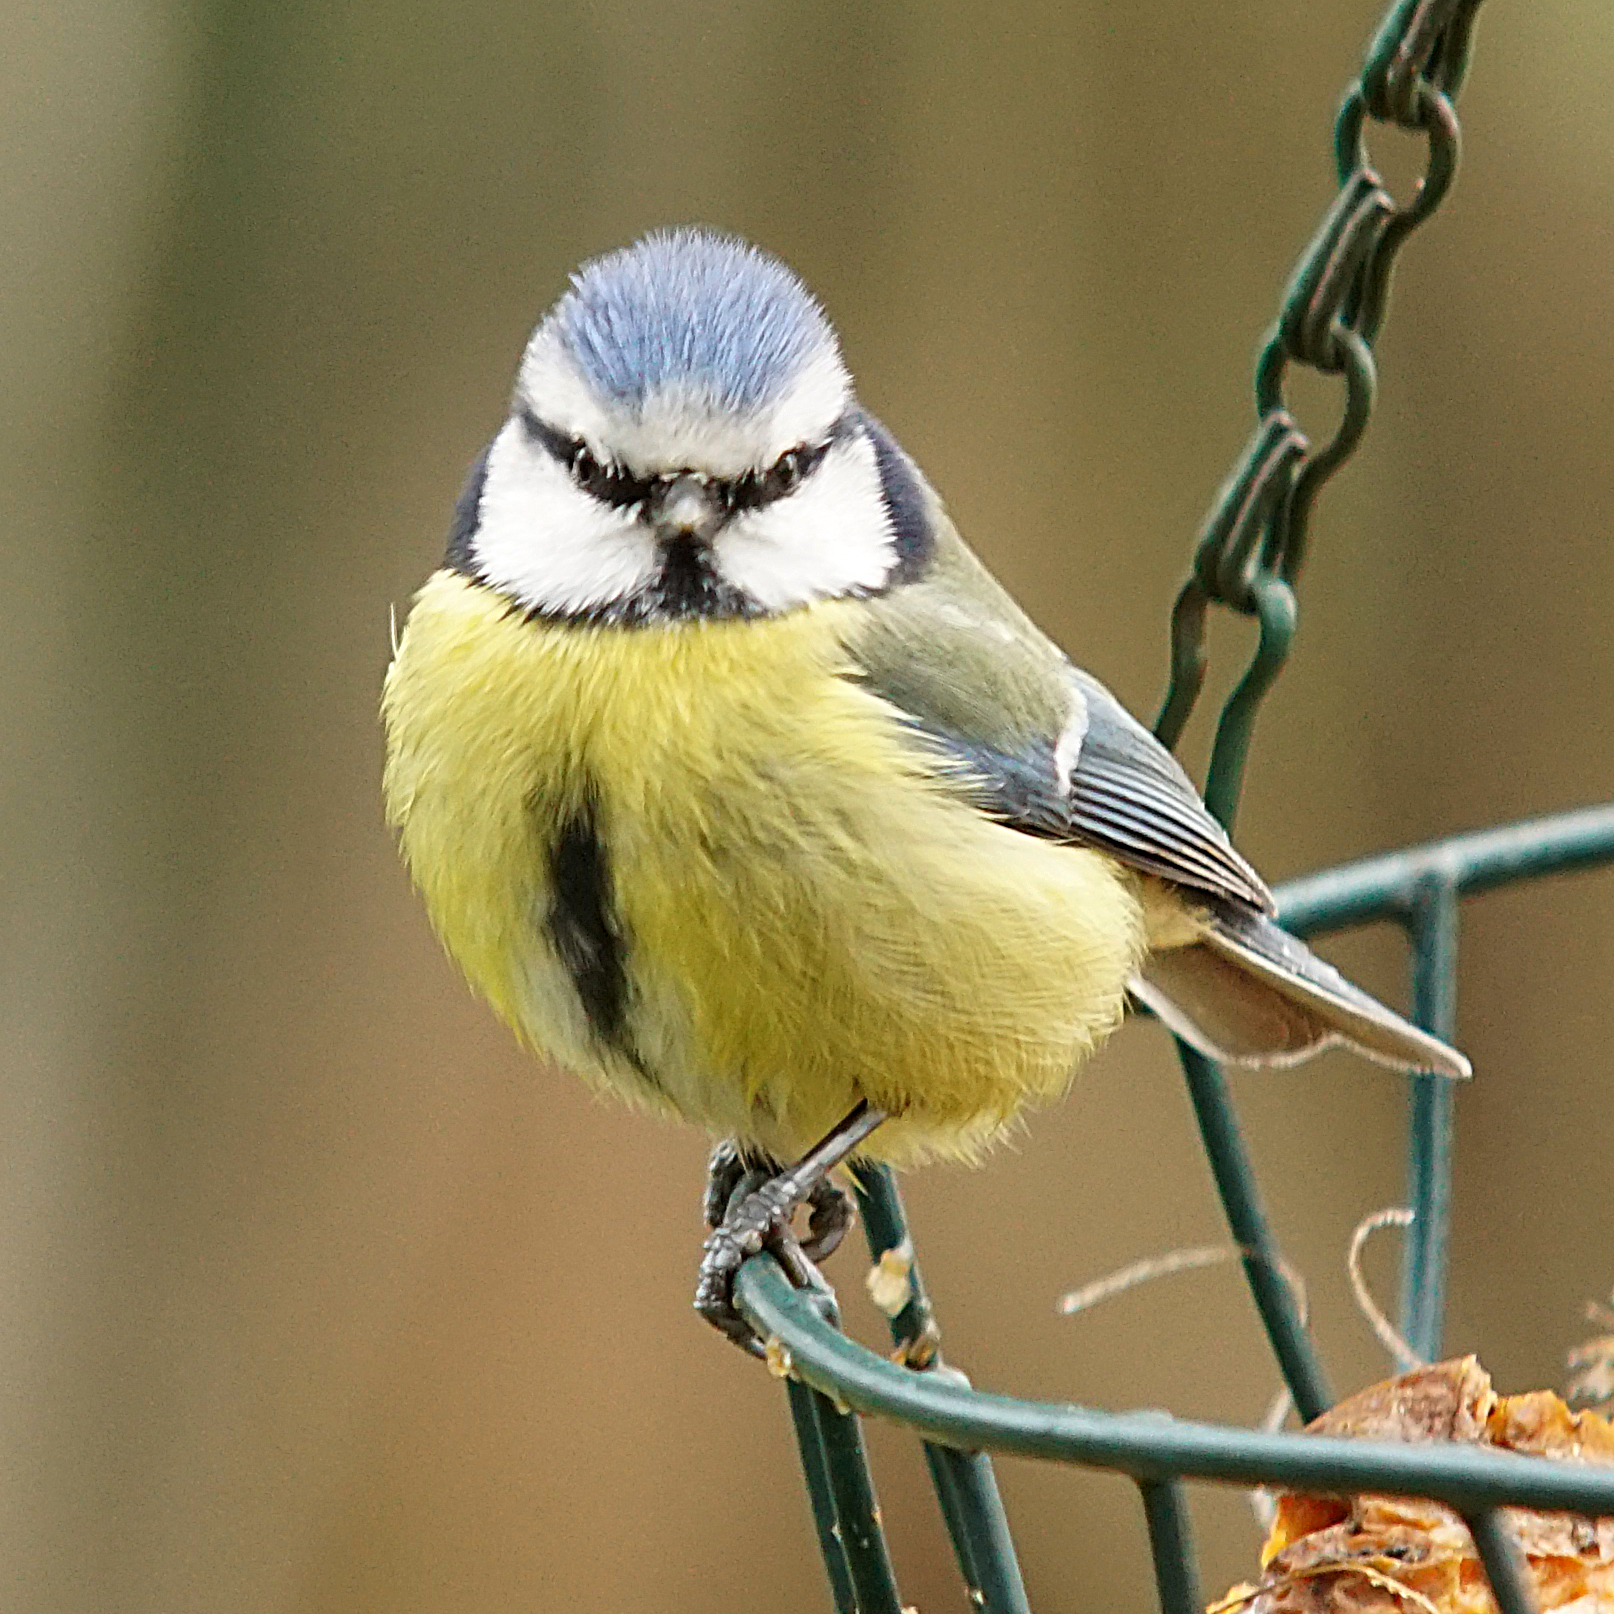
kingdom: Animalia
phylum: Chordata
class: Aves
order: Passeriformes
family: Paridae
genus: Cyanistes
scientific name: Cyanistes caeruleus
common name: Eurasian blue tit
